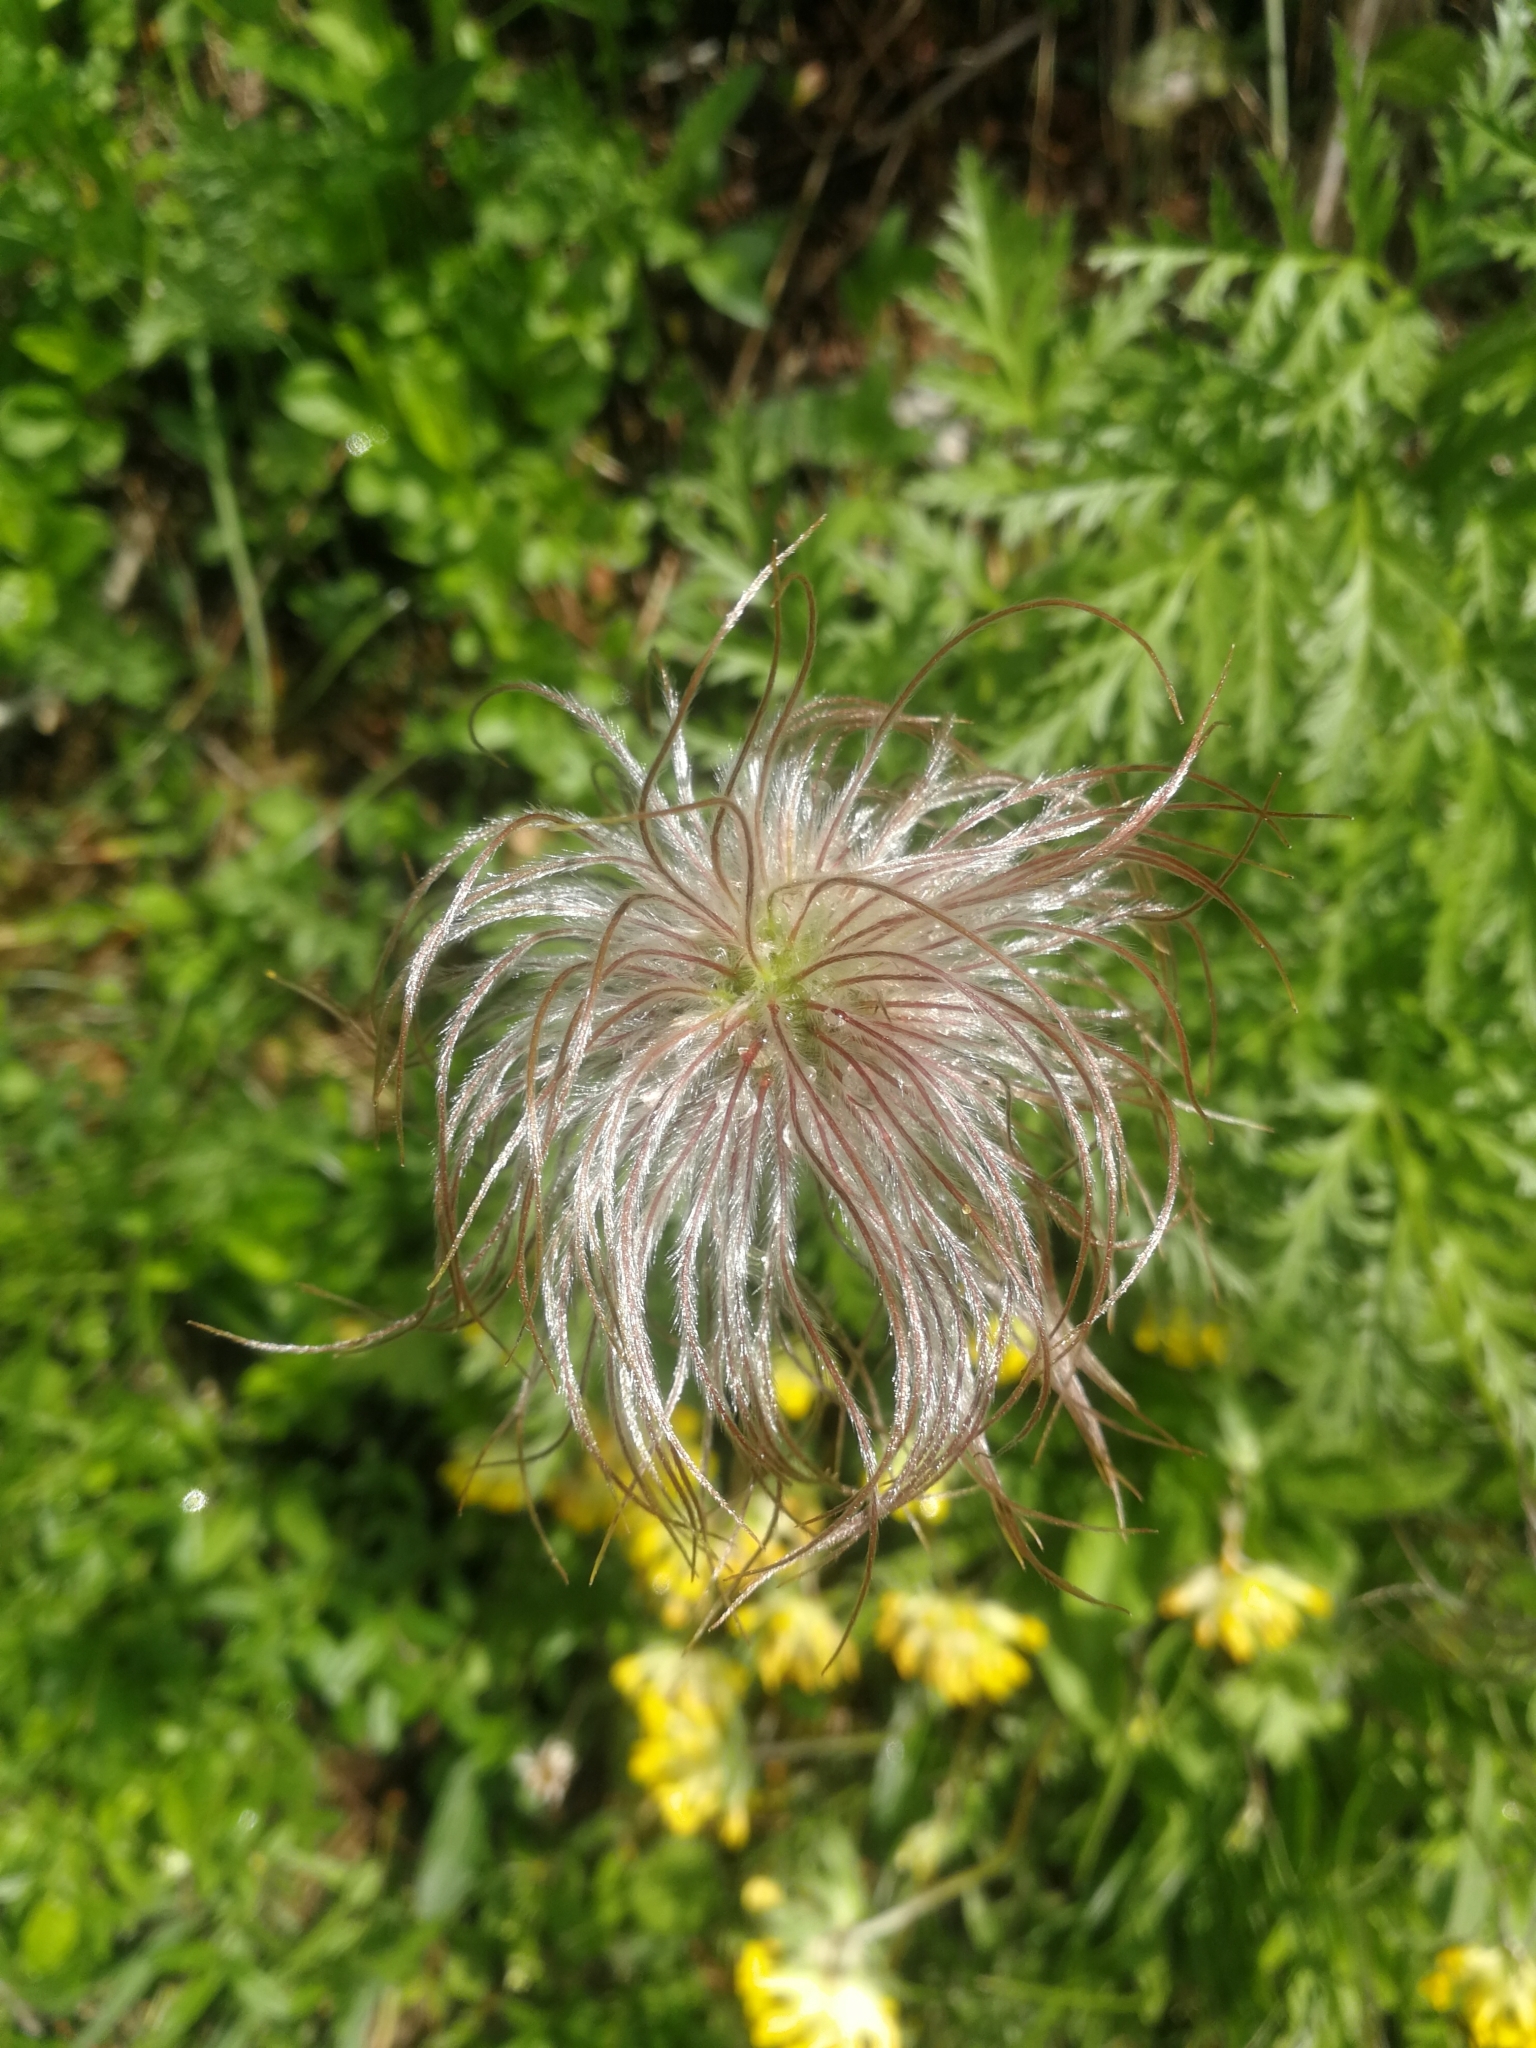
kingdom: Plantae
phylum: Tracheophyta
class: Magnoliopsida
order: Ranunculales
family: Ranunculaceae
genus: Pulsatilla
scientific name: Pulsatilla alpina
